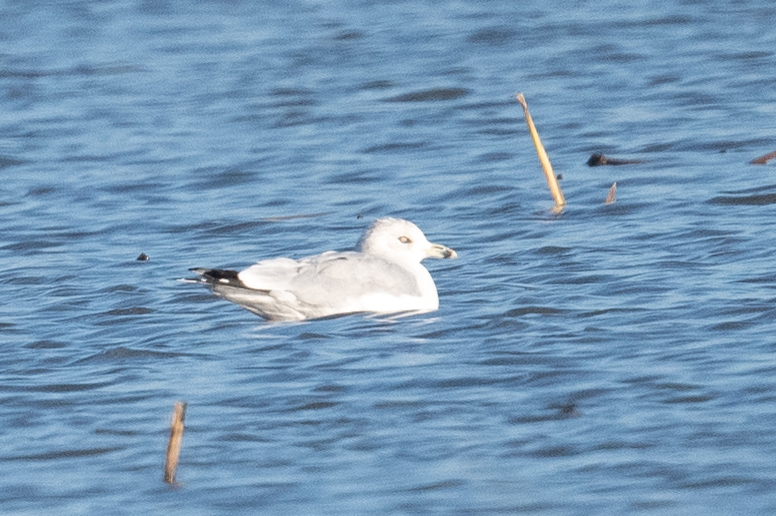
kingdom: Animalia
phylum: Chordata
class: Aves
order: Charadriiformes
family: Laridae
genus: Larus
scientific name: Larus delawarensis
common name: Ring-billed gull
